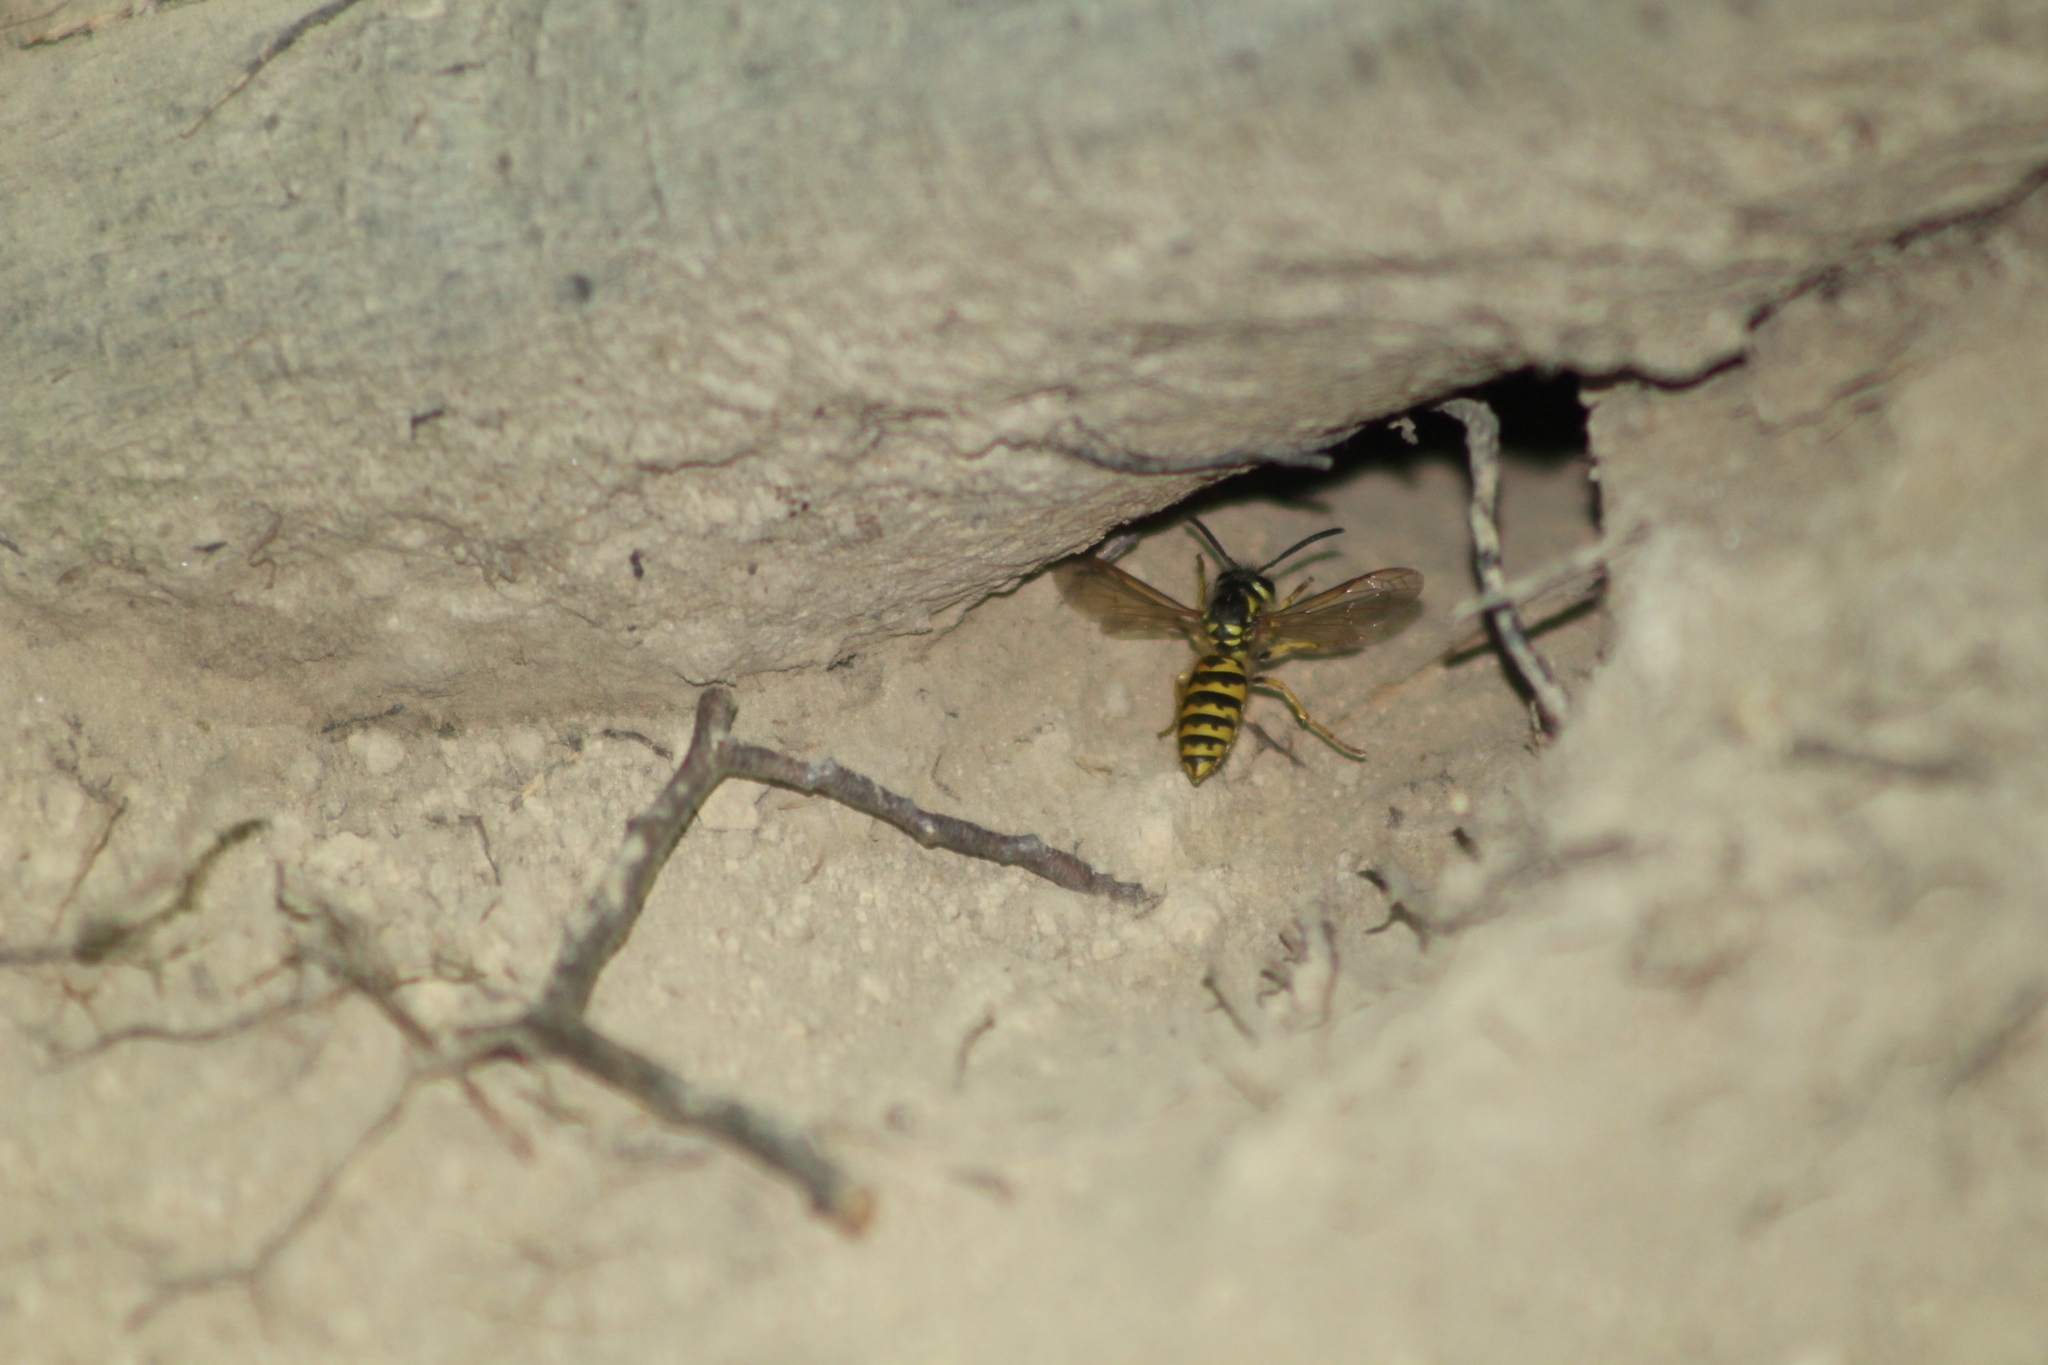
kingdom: Animalia
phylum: Arthropoda
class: Insecta
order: Hymenoptera
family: Vespidae
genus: Vespula
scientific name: Vespula
